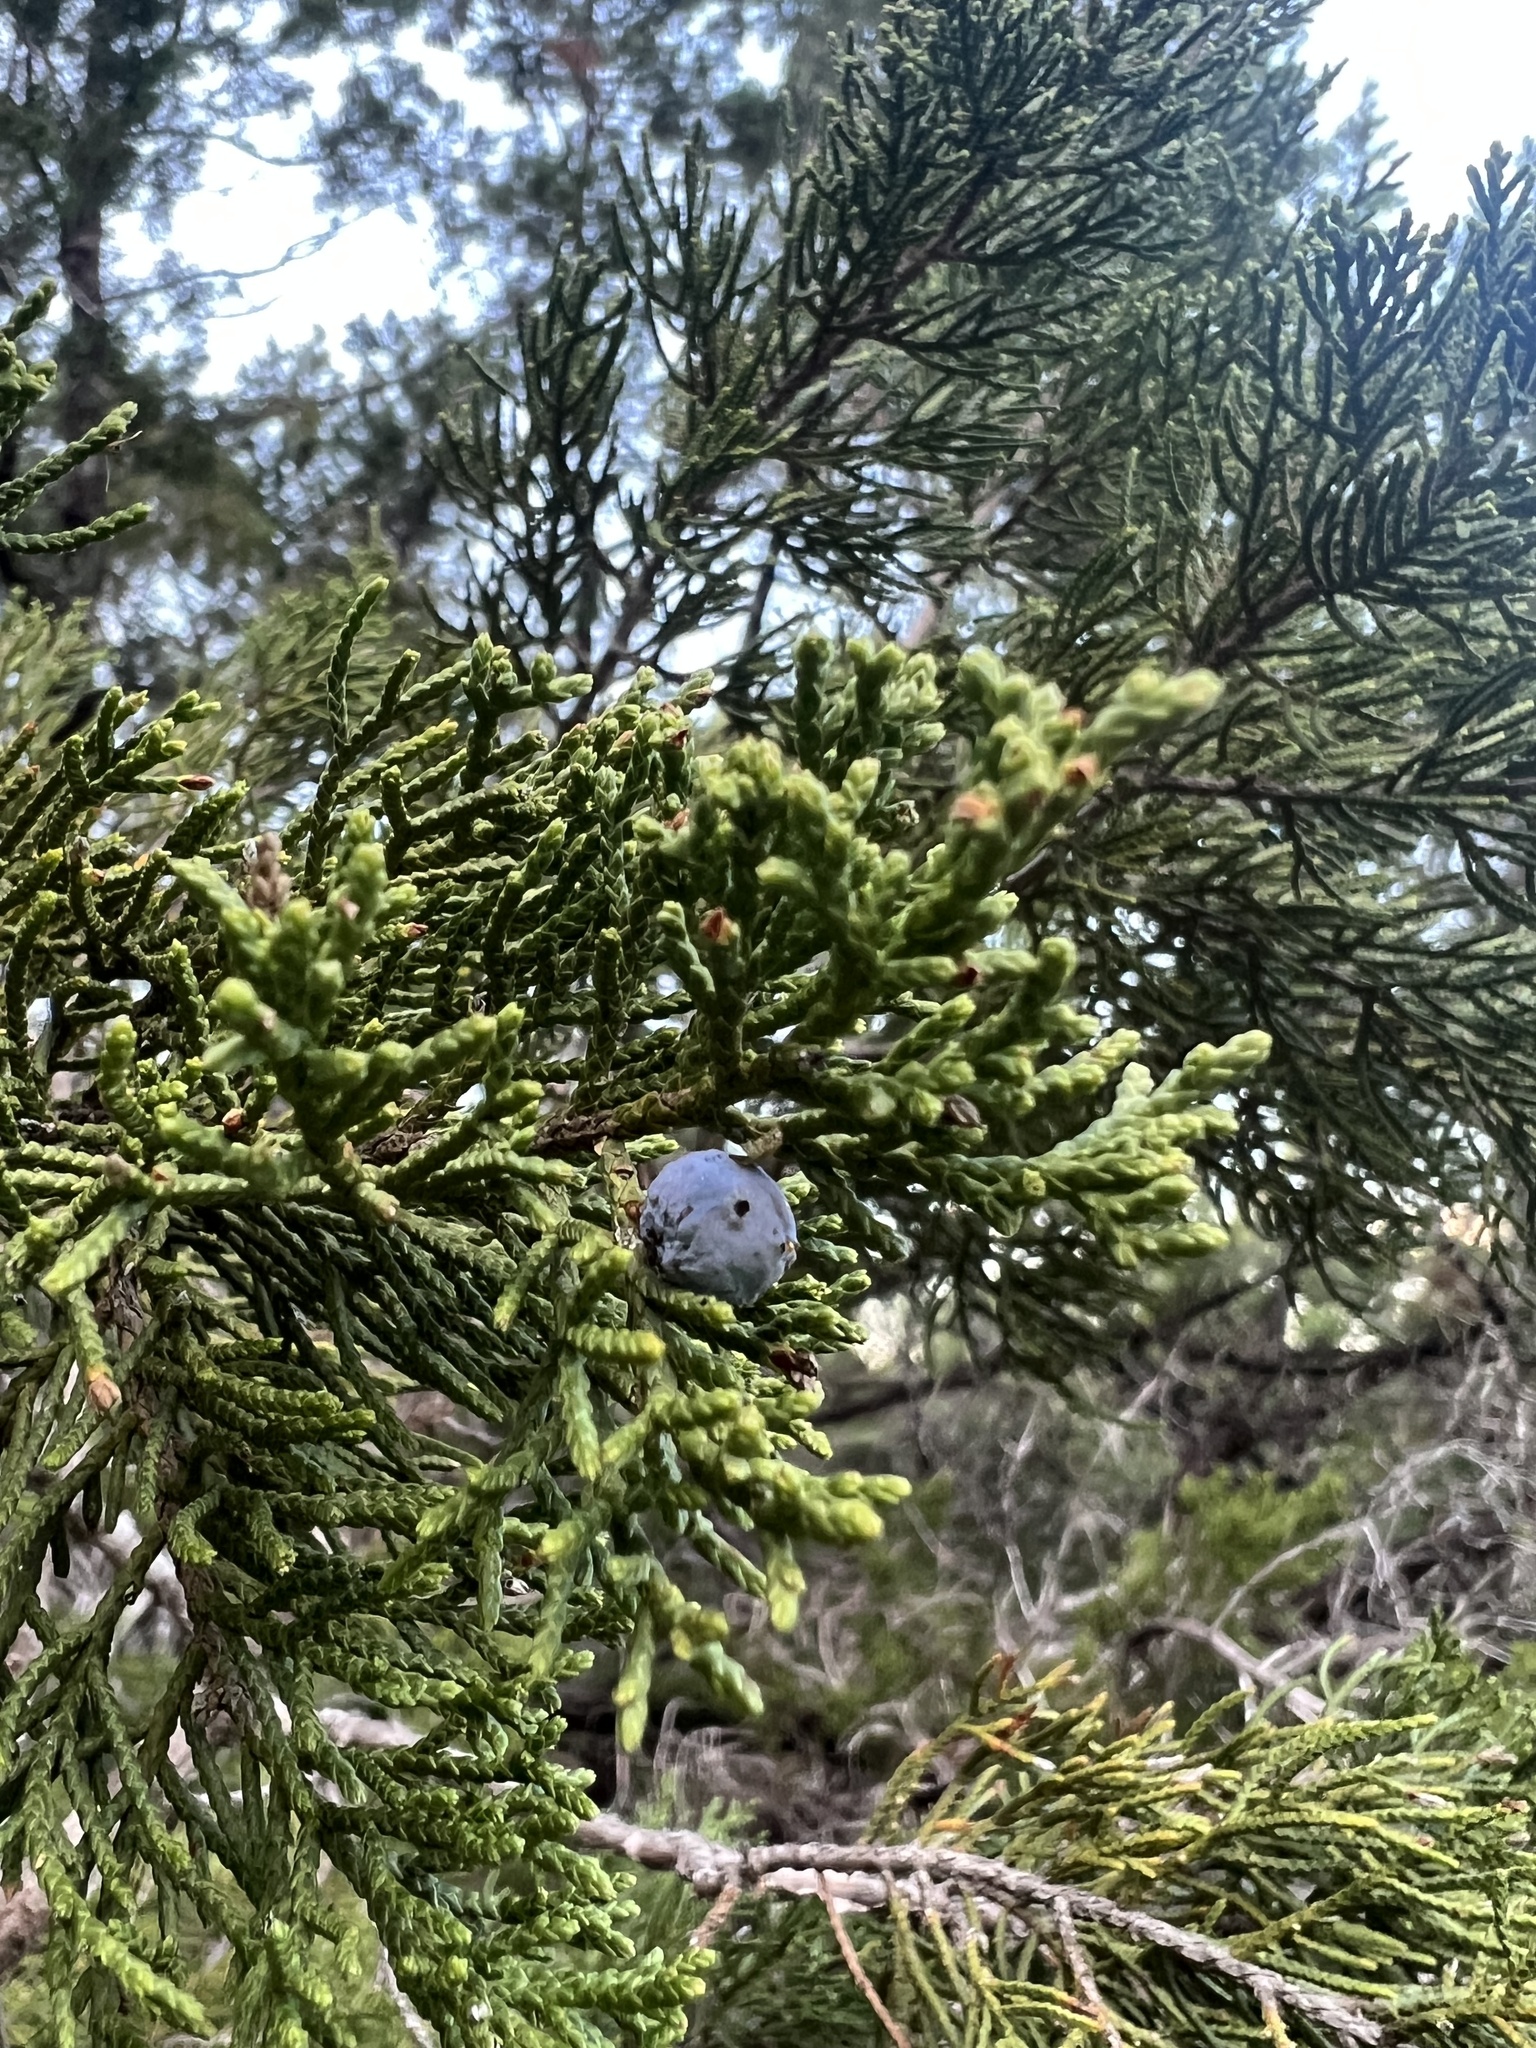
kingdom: Plantae
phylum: Tracheophyta
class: Pinopsida
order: Pinales
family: Cupressaceae
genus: Juniperus
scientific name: Juniperus ashei
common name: Mexican juniper
